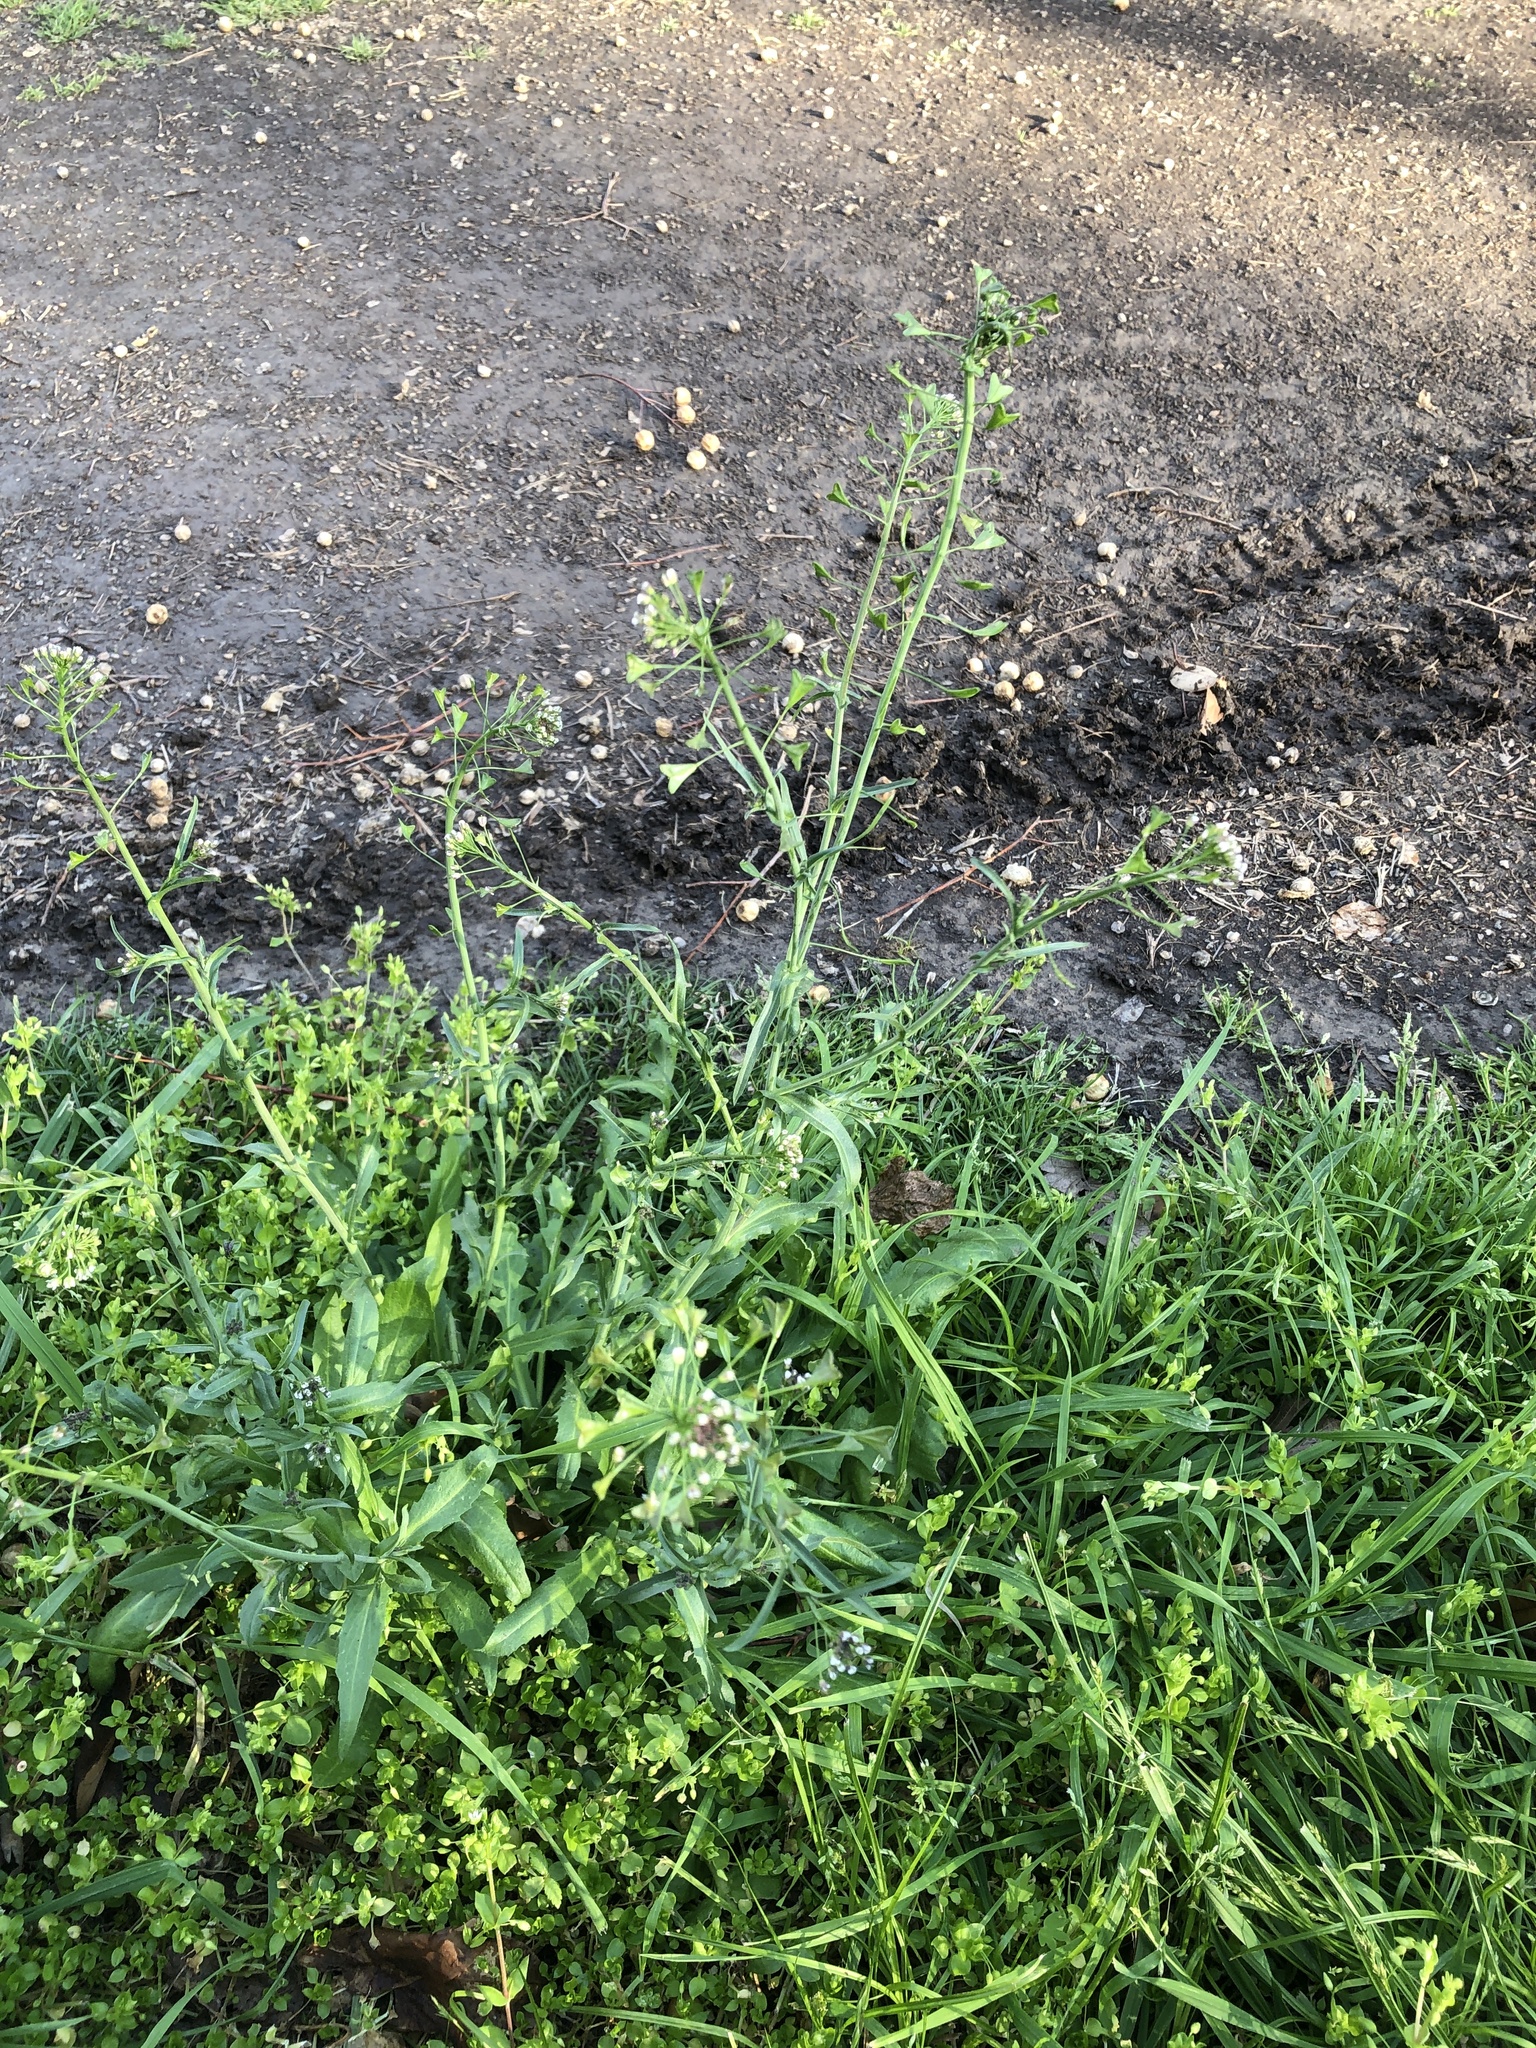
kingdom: Plantae
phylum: Tracheophyta
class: Magnoliopsida
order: Brassicales
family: Brassicaceae
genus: Capsella
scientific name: Capsella bursa-pastoris
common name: Shepherd's purse
